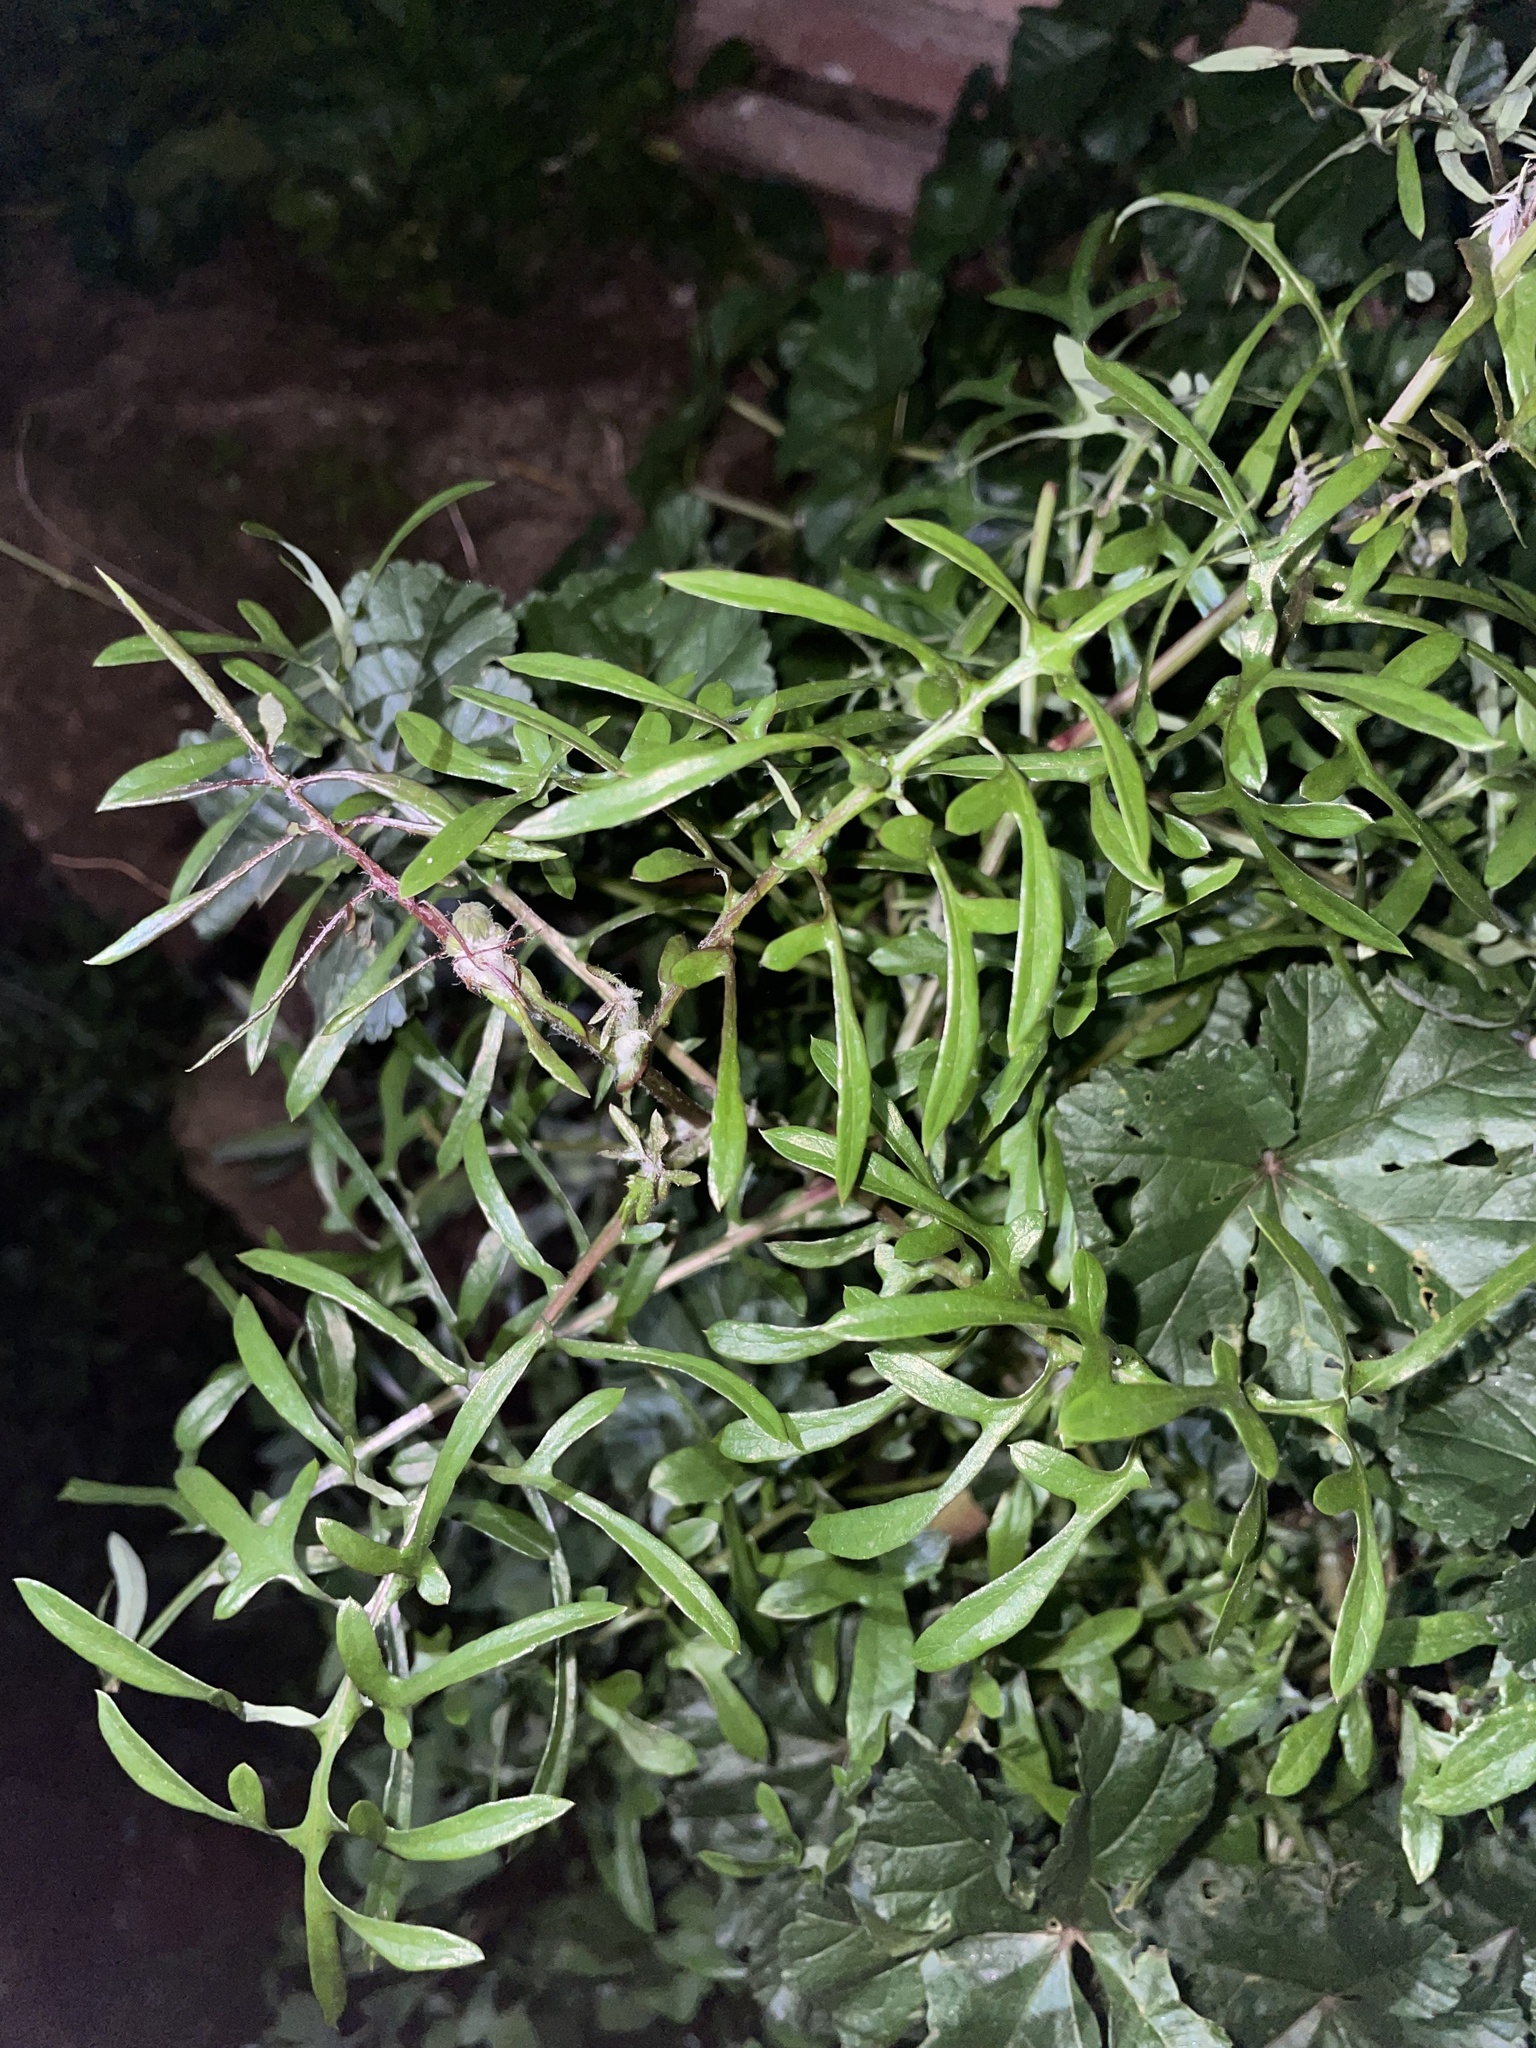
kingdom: Plantae
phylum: Tracheophyta
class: Magnoliopsida
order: Asterales
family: Asteraceae
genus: Sonchus
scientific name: Sonchus tenerrimus
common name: Clammy sowthistle
